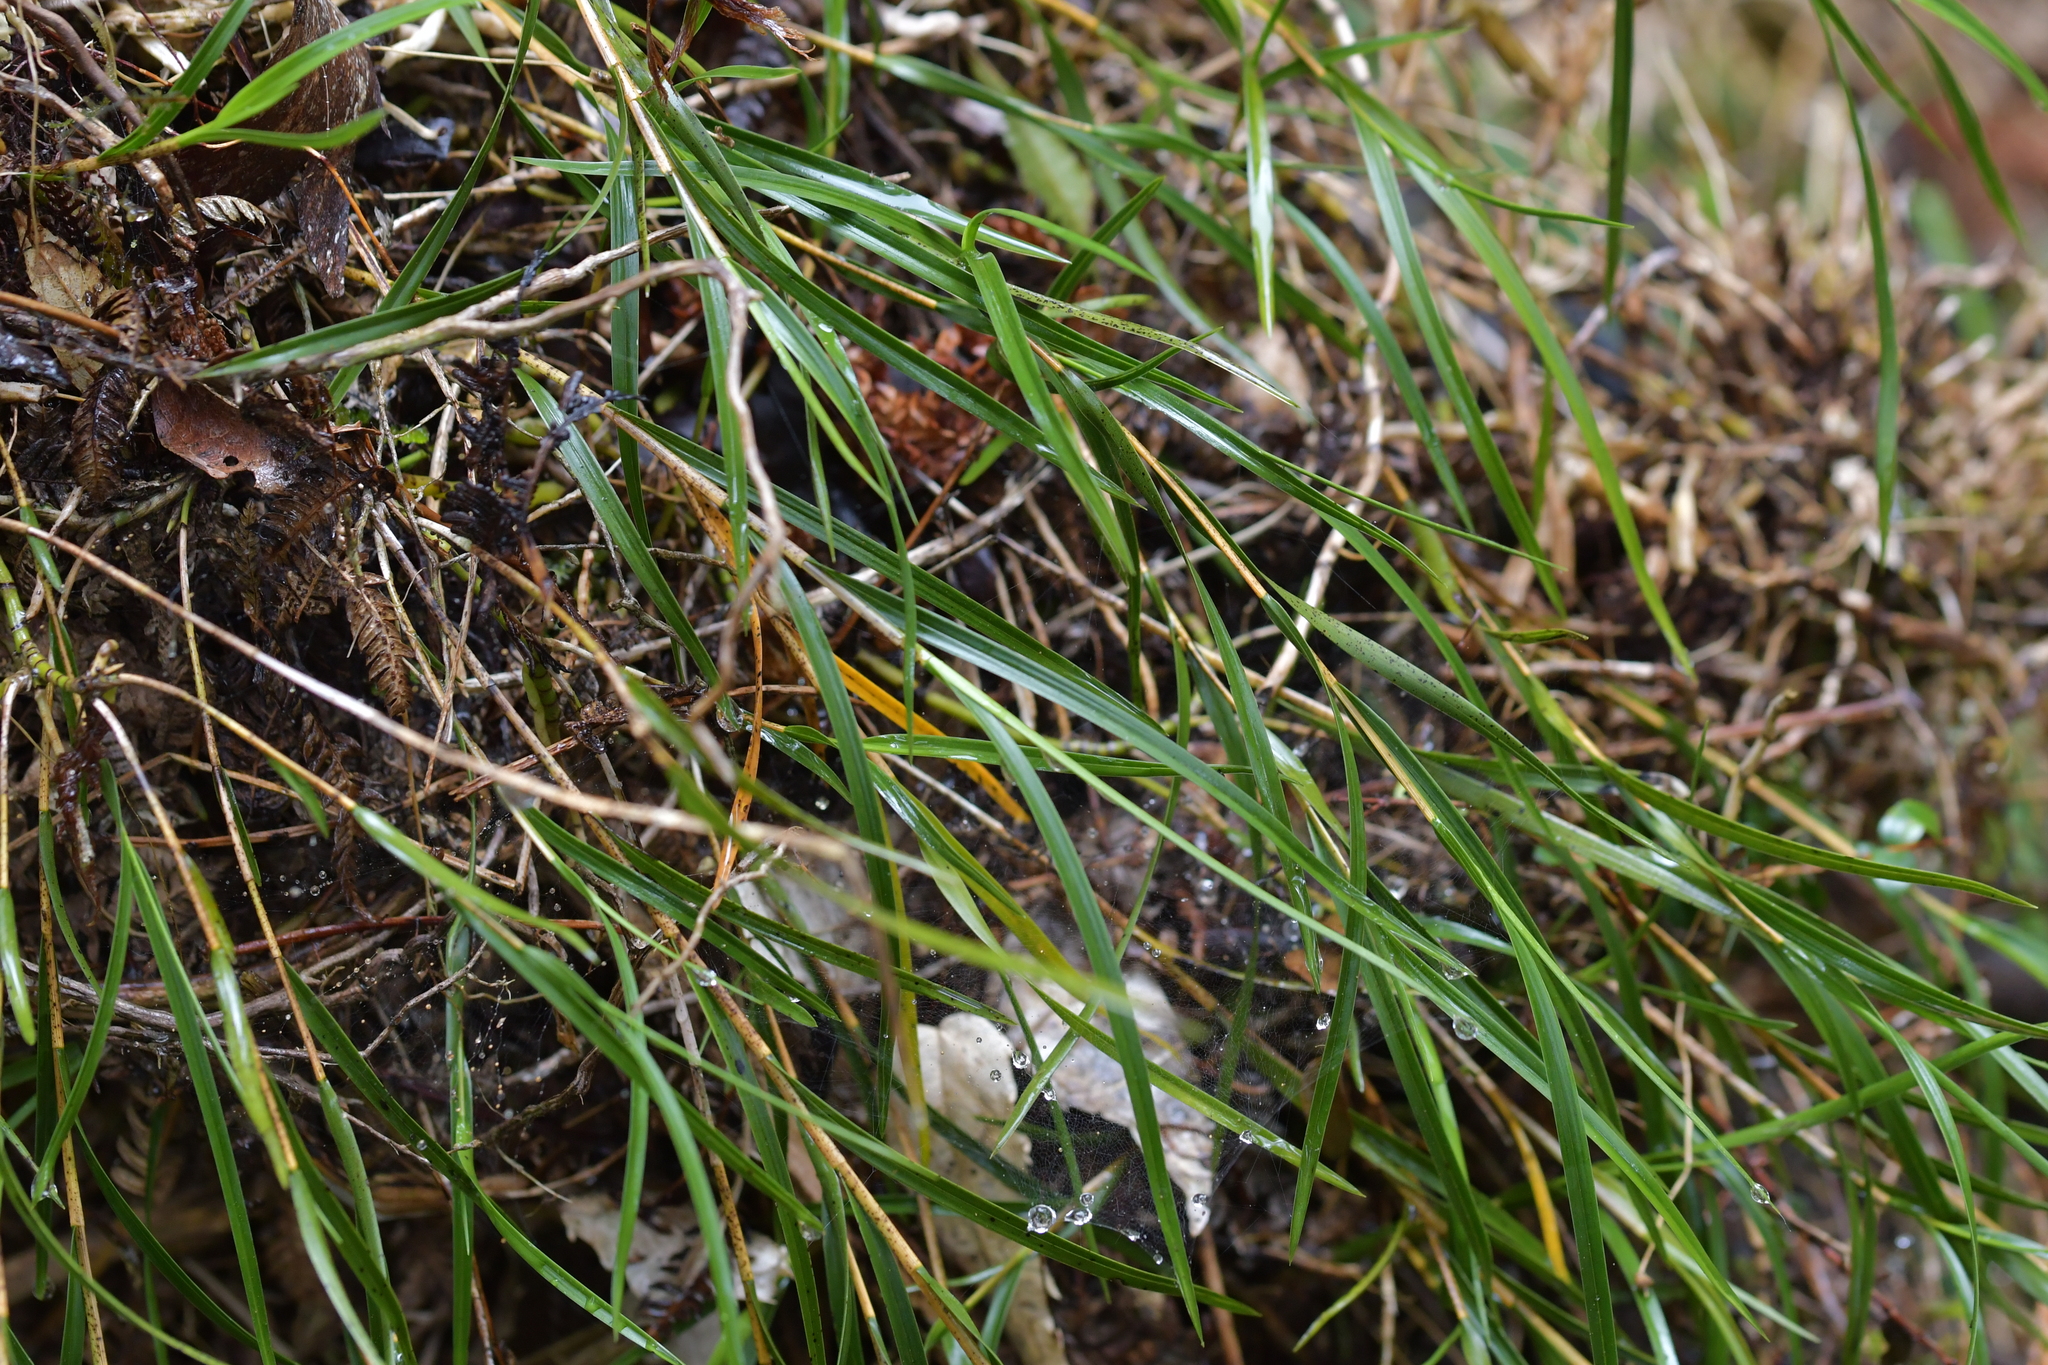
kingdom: Plantae
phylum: Tracheophyta
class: Liliopsida
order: Asparagales
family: Orchidaceae
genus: Earina
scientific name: Earina mucronata
